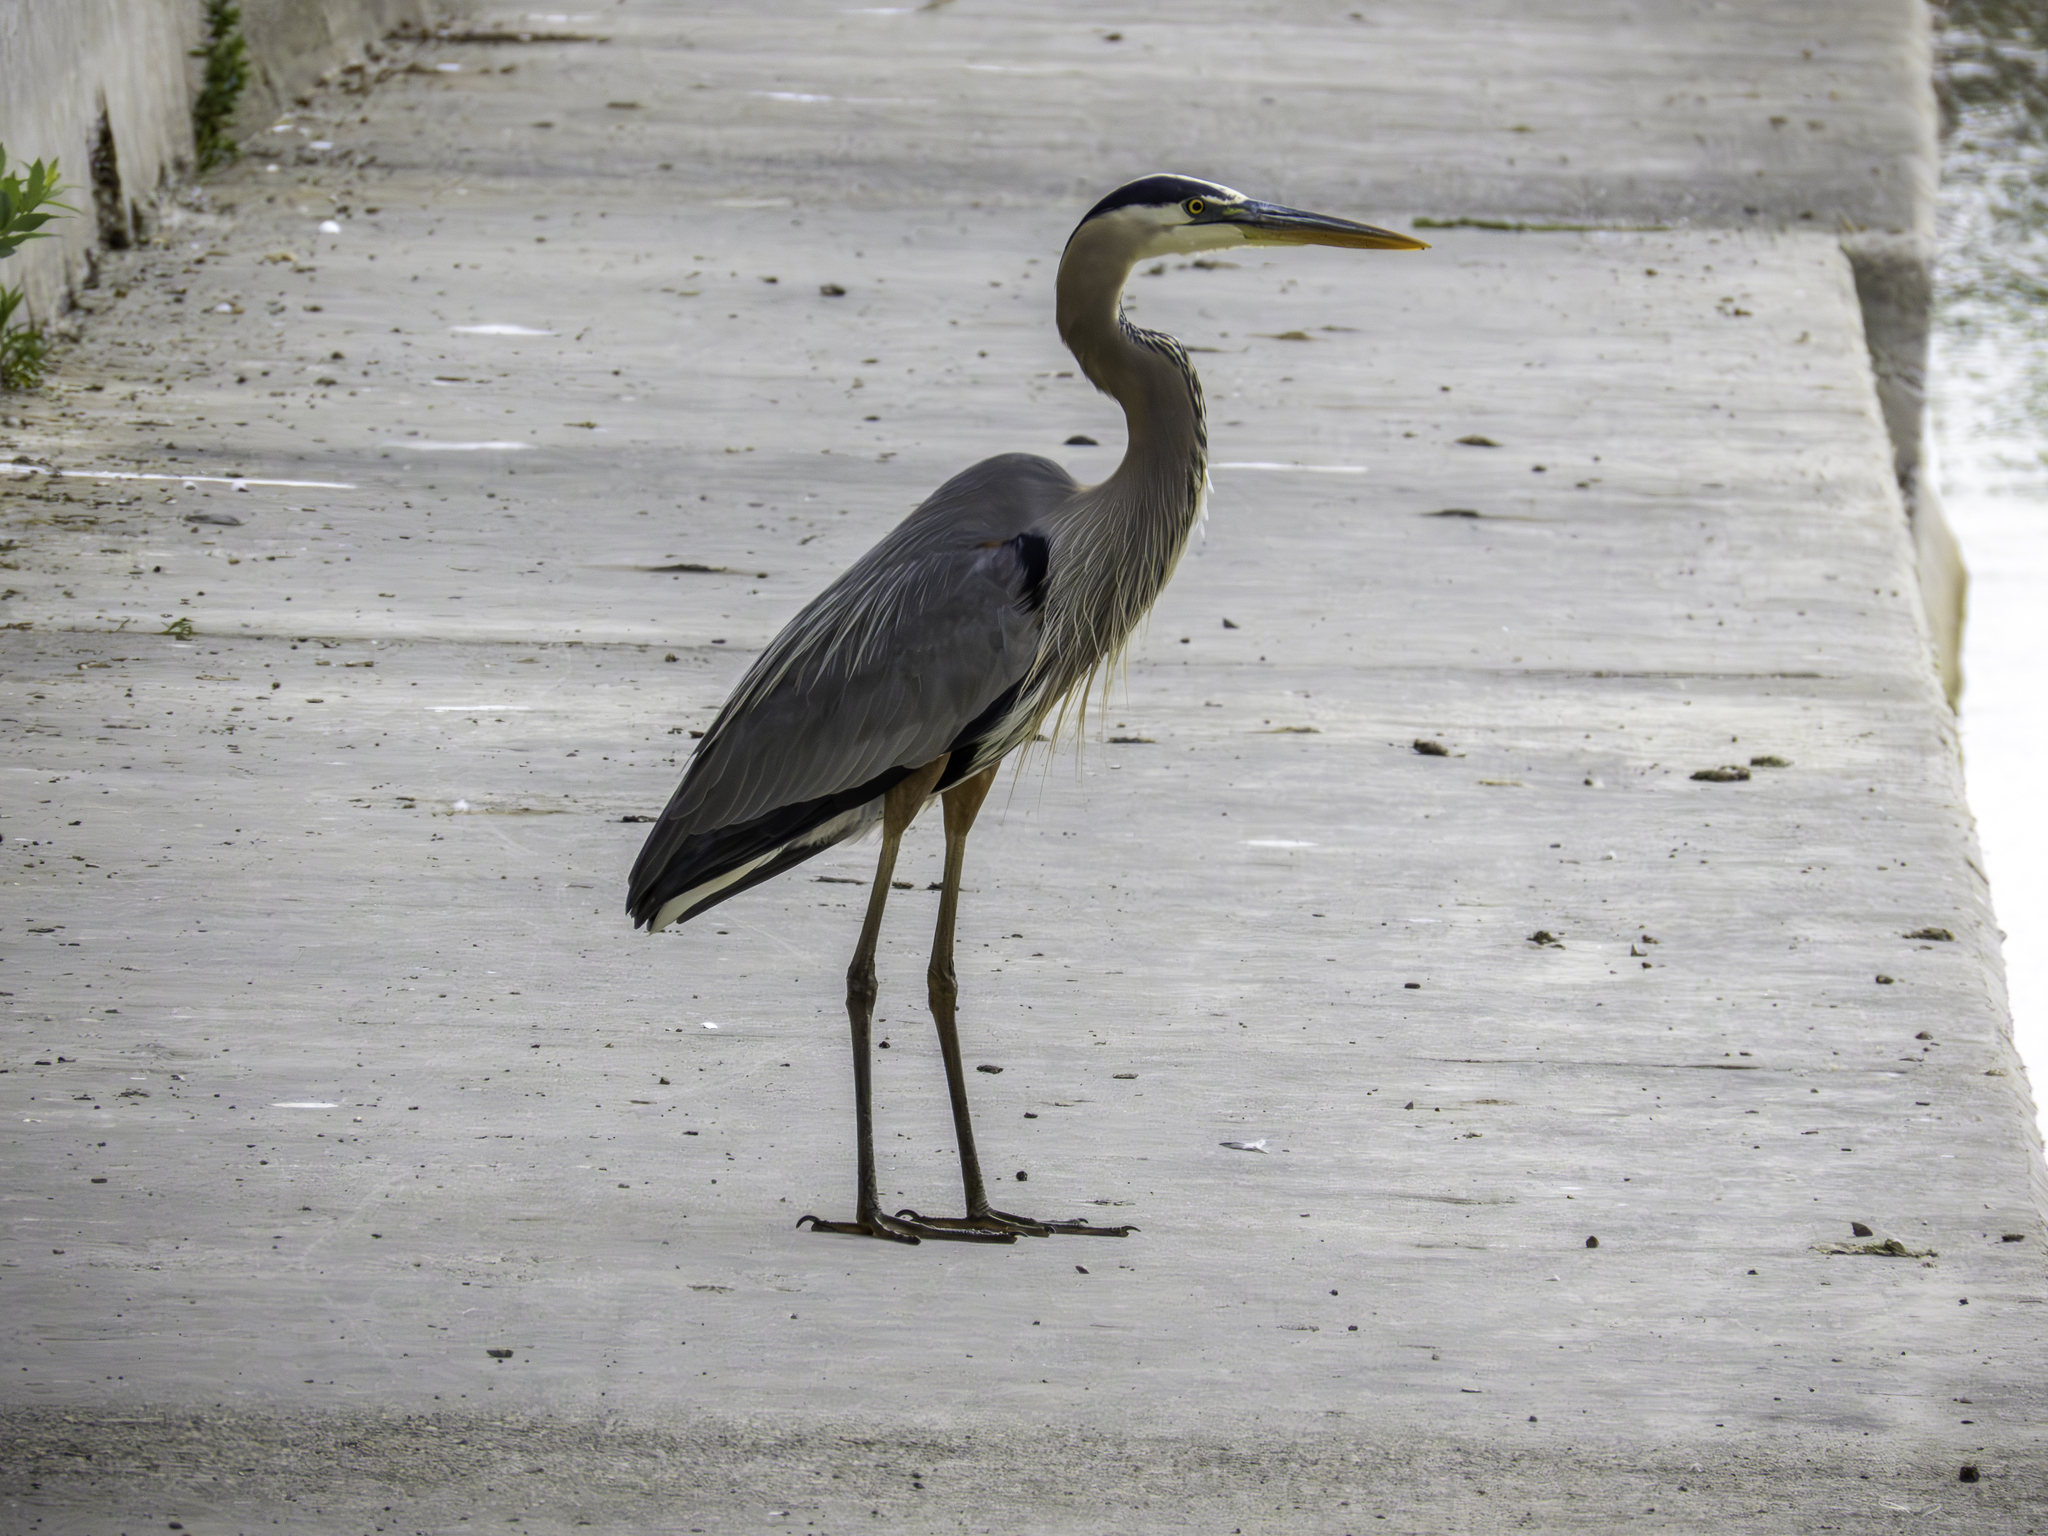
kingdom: Animalia
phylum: Chordata
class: Aves
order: Pelecaniformes
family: Ardeidae
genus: Ardea
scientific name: Ardea herodias
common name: Great blue heron
